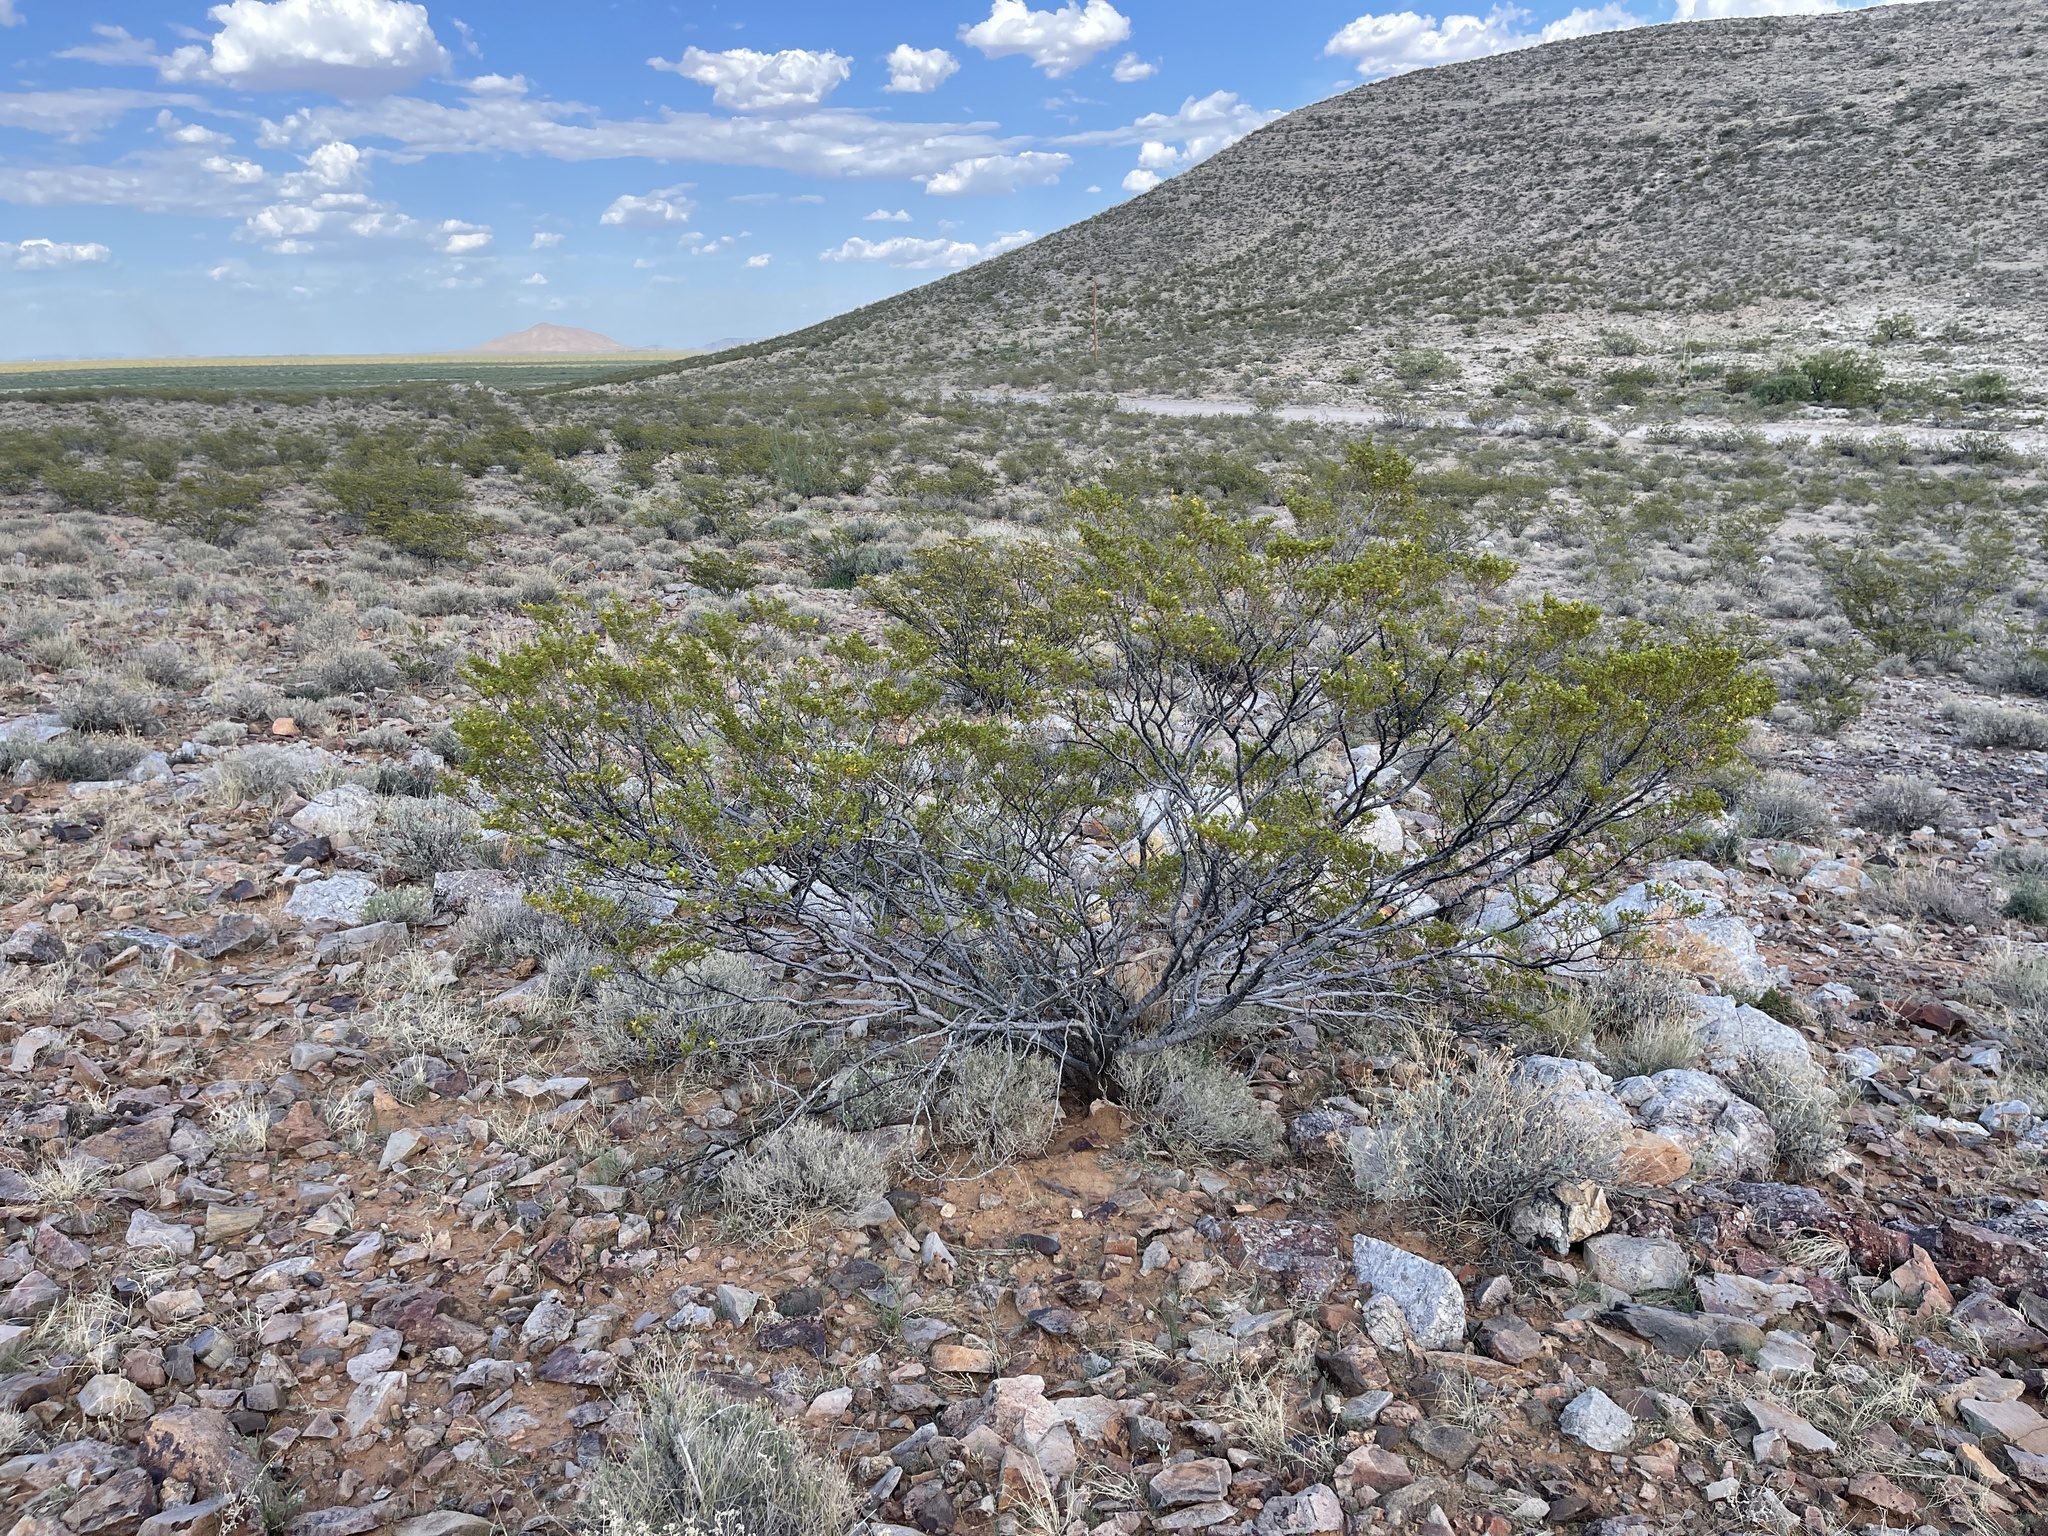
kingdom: Plantae
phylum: Tracheophyta
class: Magnoliopsida
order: Zygophyllales
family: Zygophyllaceae
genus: Larrea
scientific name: Larrea tridentata
